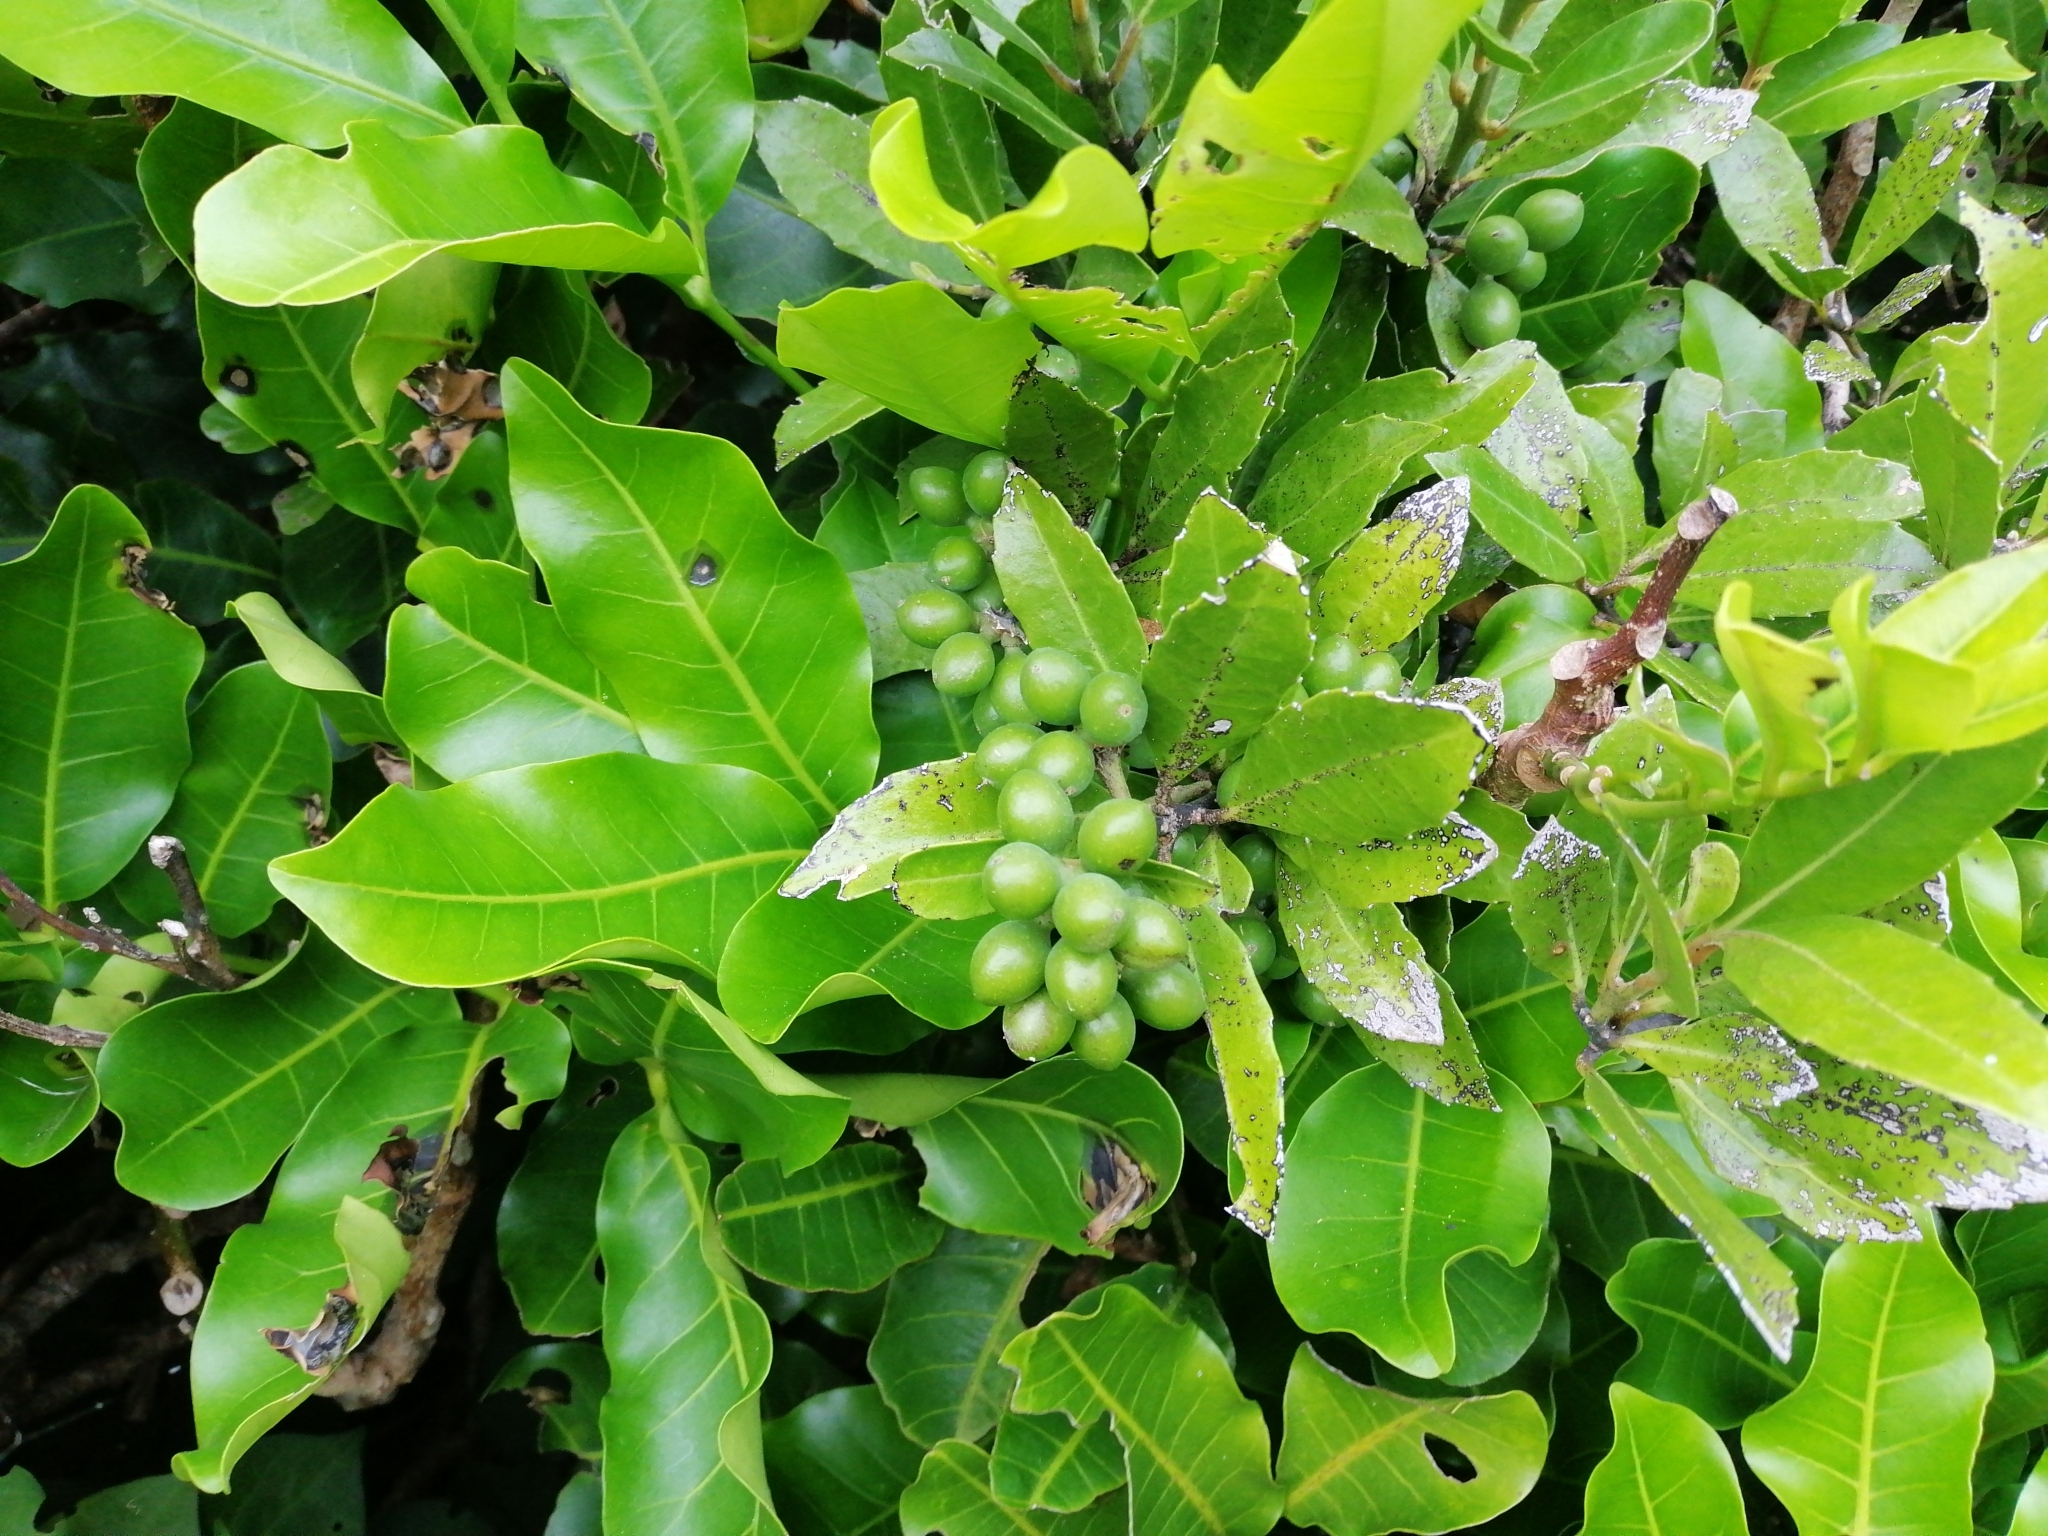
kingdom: Plantae
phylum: Tracheophyta
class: Magnoliopsida
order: Laurales
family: Monimiaceae
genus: Hedycarya
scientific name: Hedycarya arborea
